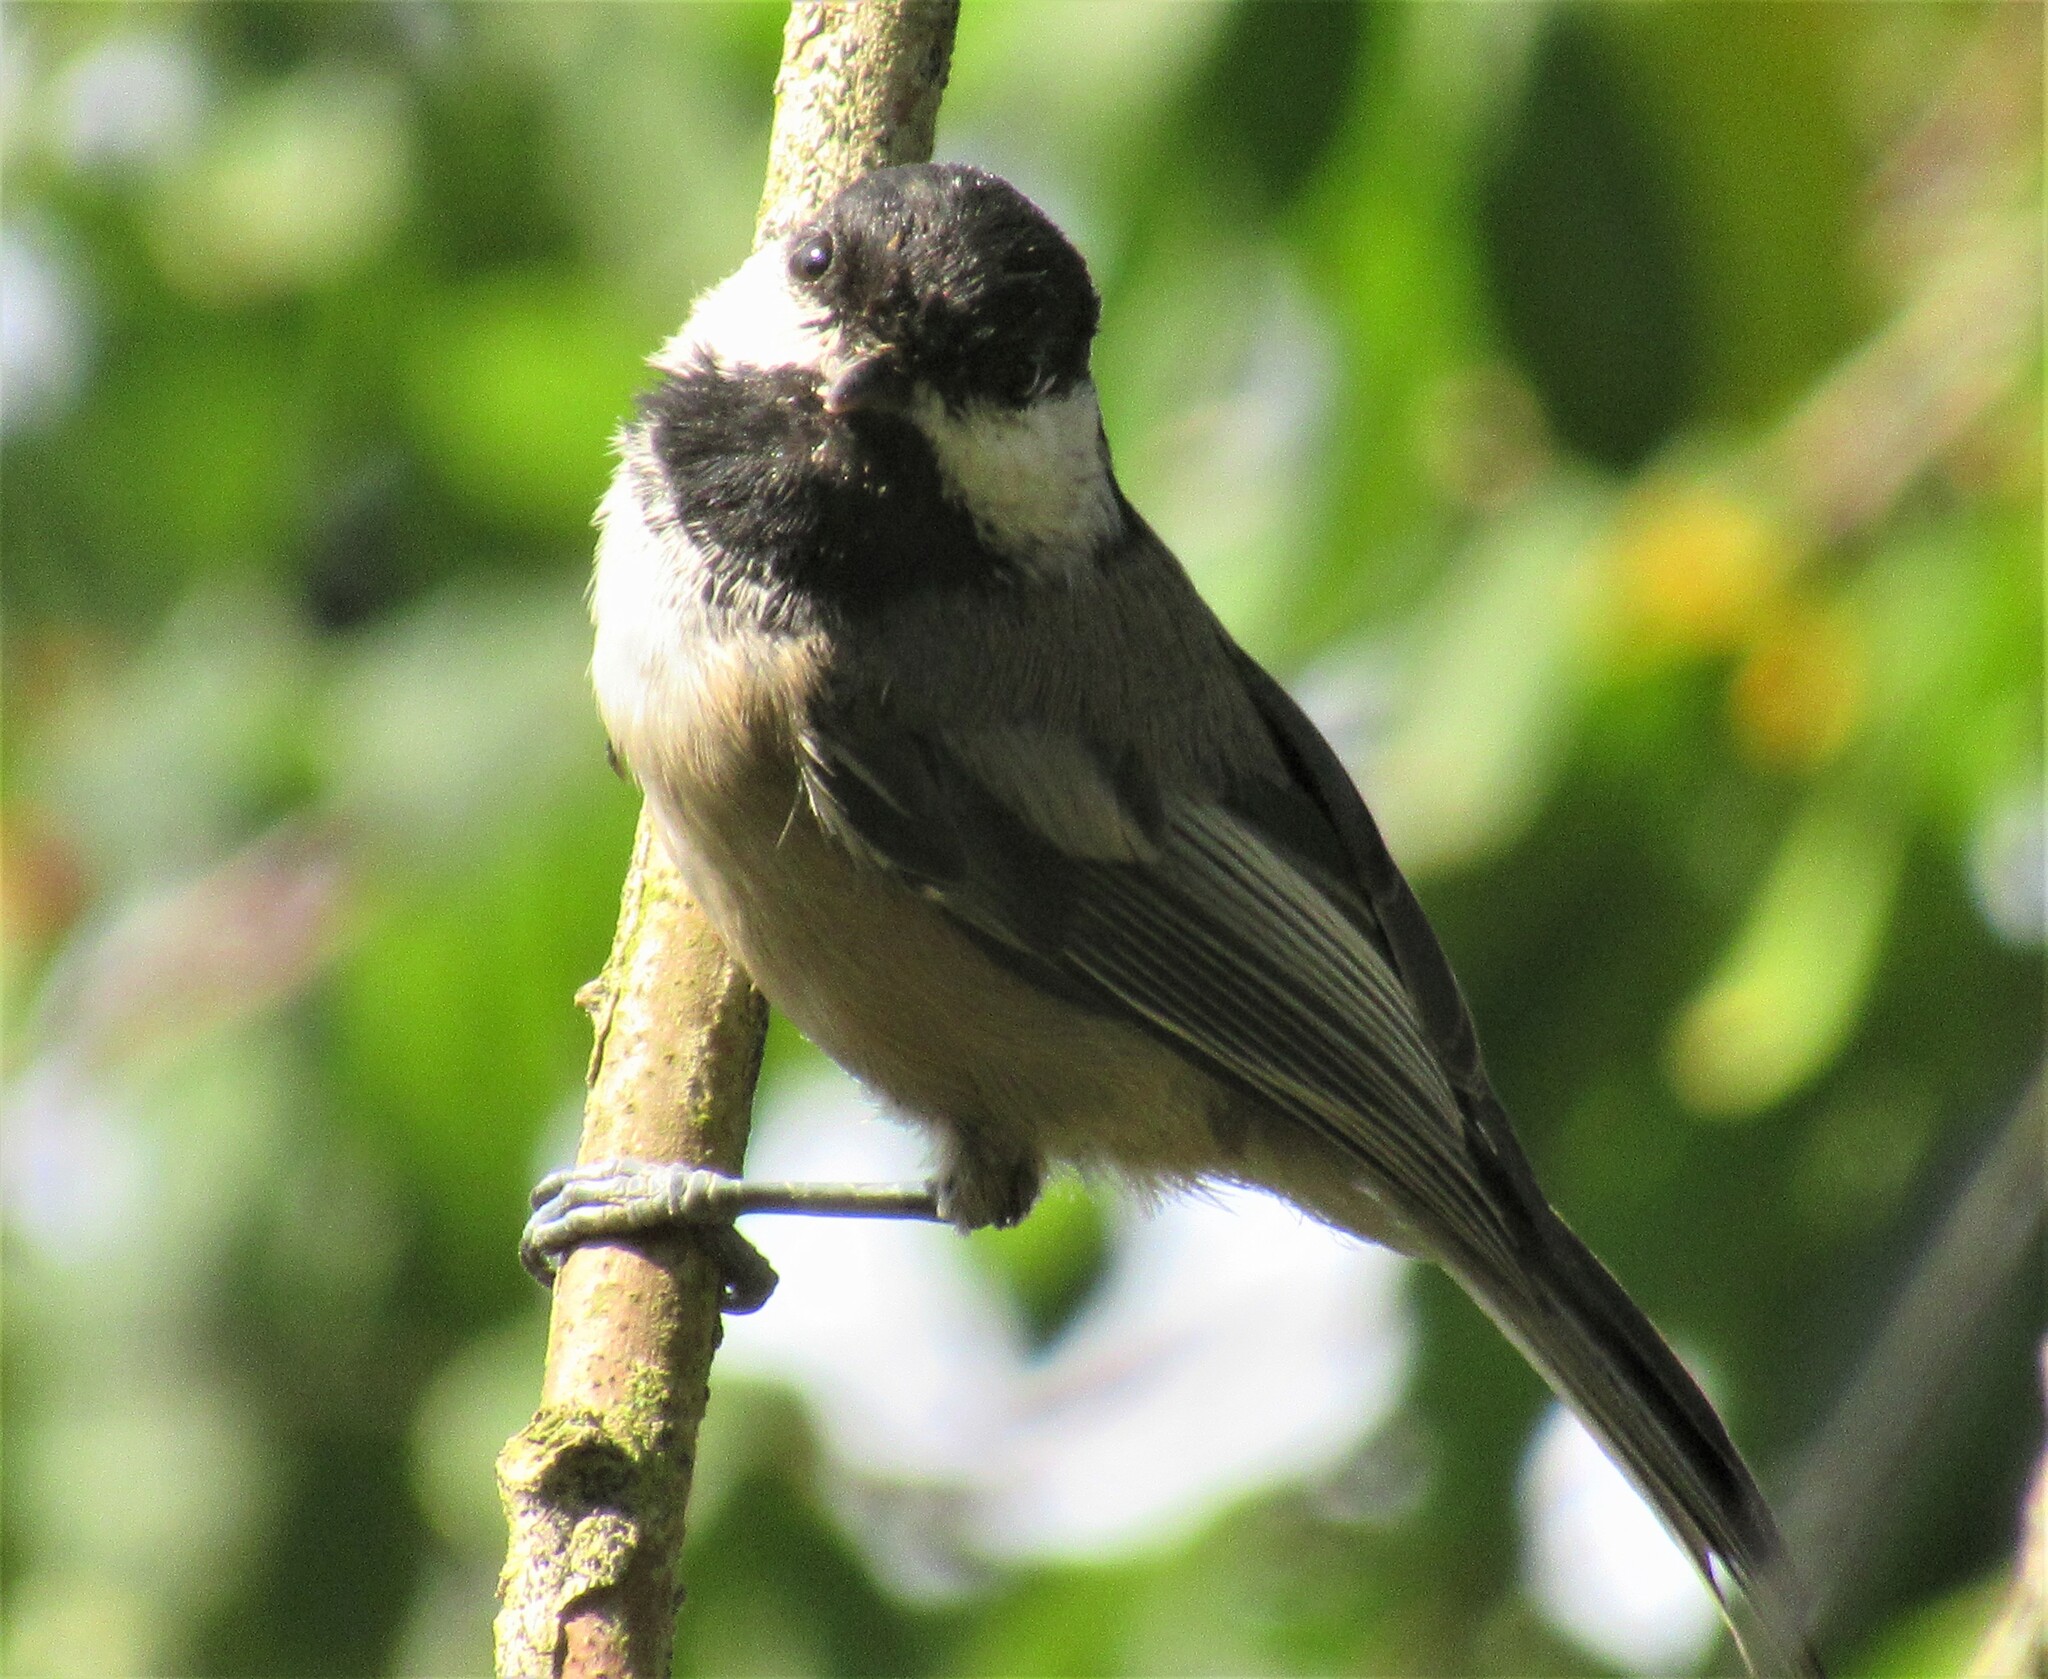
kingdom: Animalia
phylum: Chordata
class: Aves
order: Passeriformes
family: Paridae
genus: Poecile
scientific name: Poecile atricapillus
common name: Black-capped chickadee
